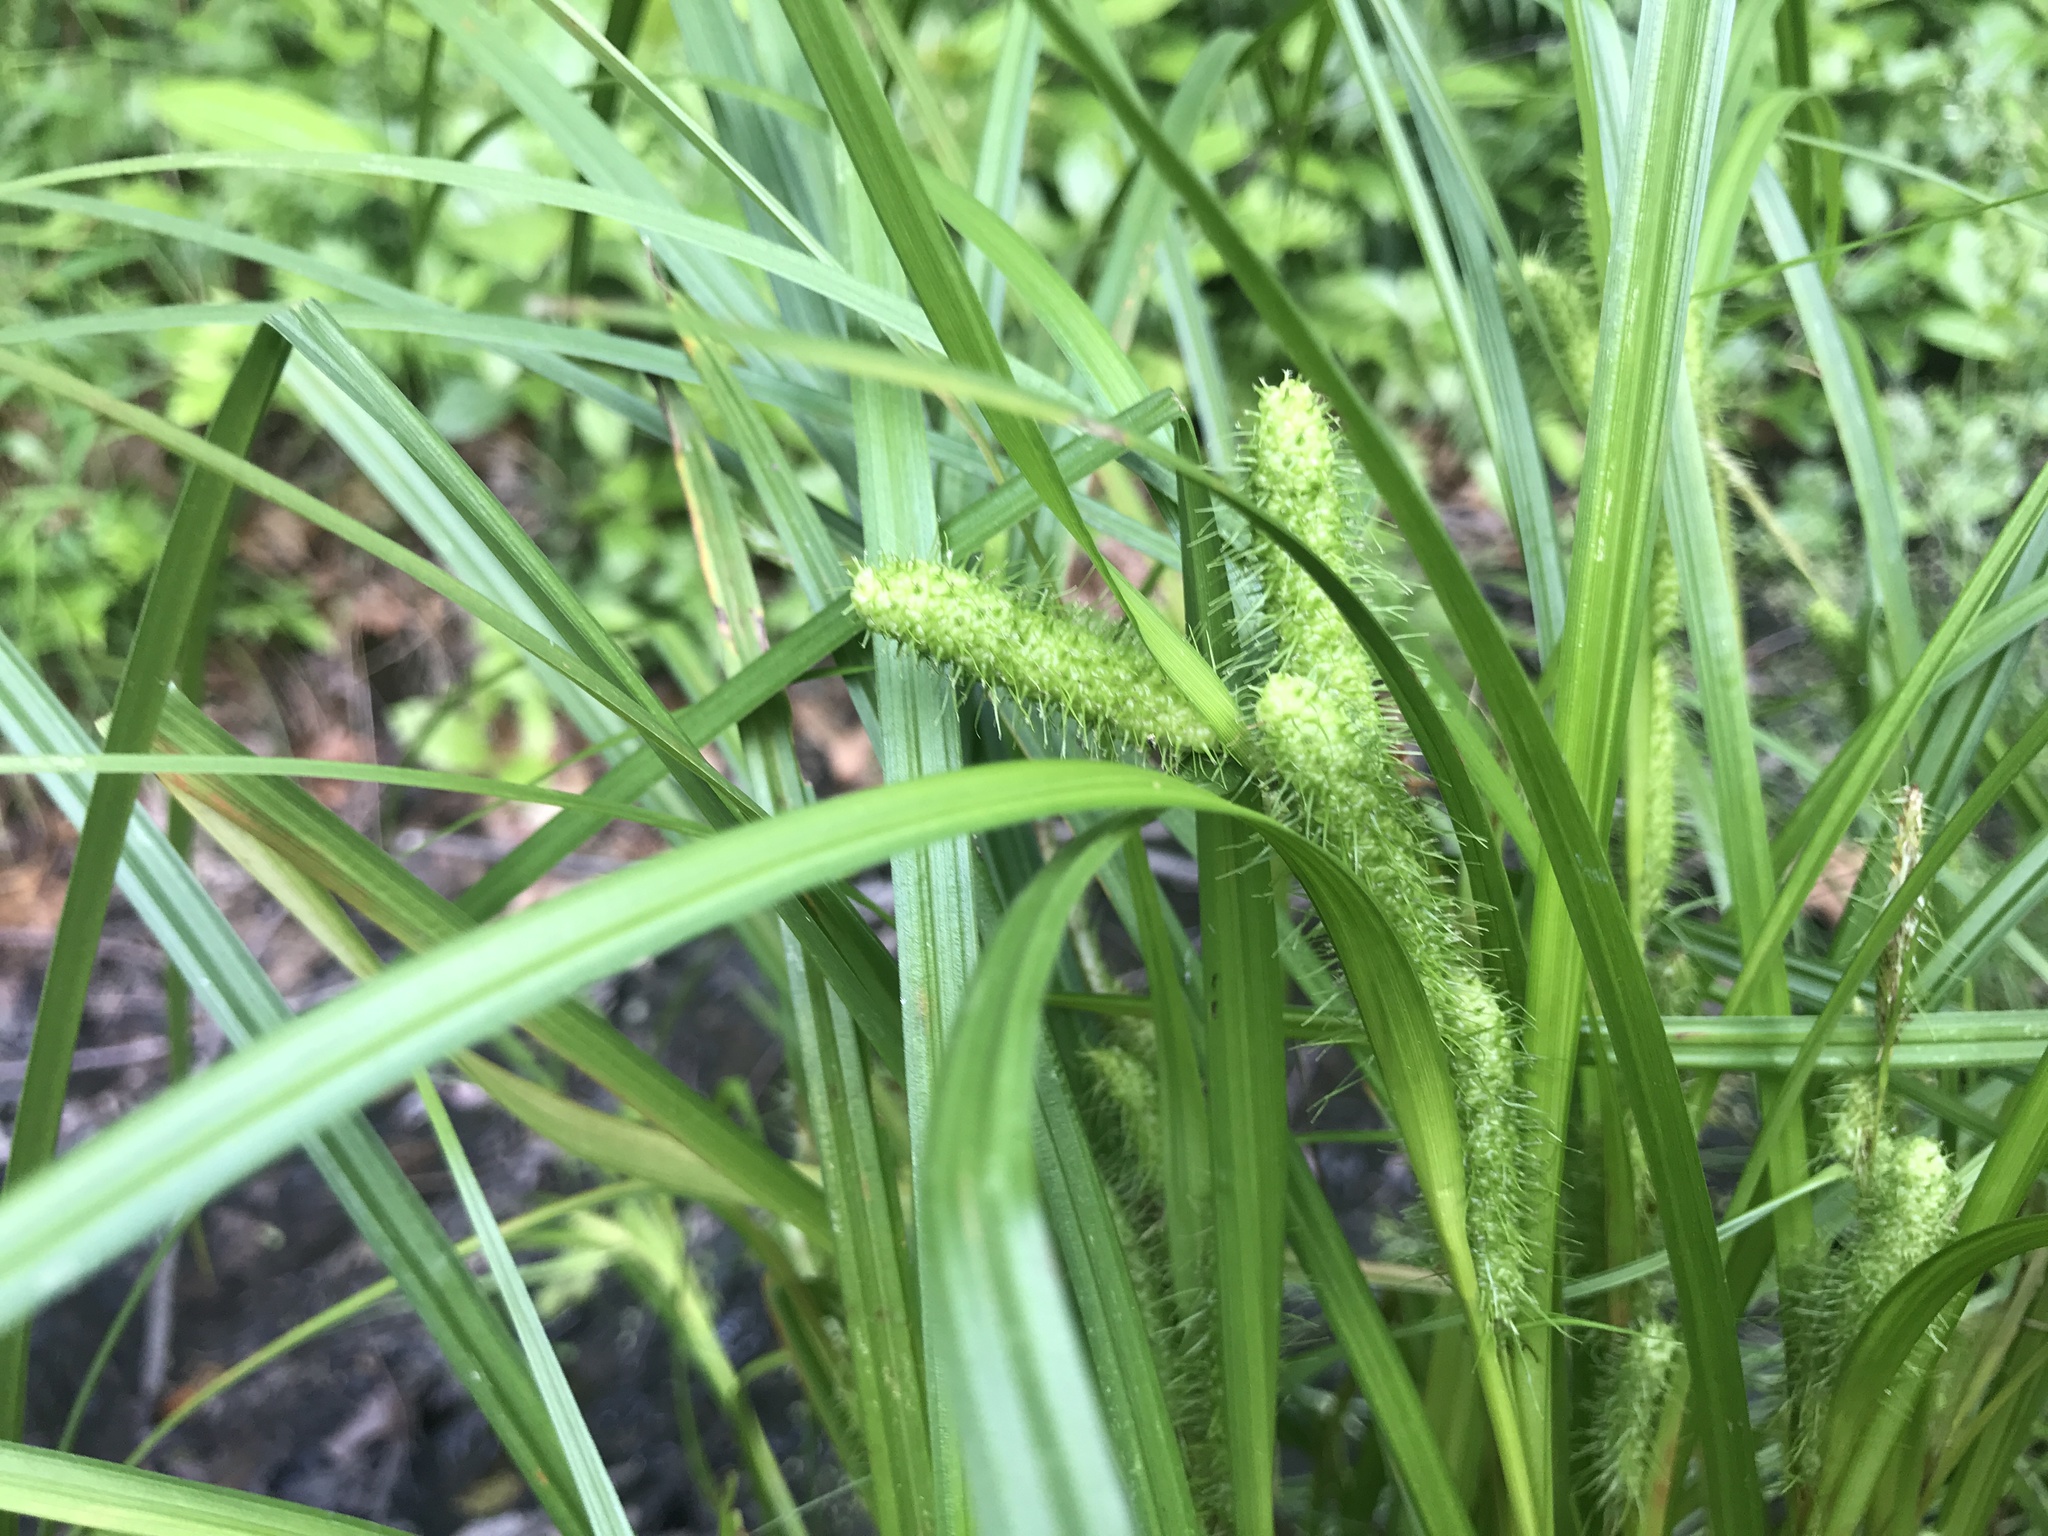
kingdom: Plantae
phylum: Tracheophyta
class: Liliopsida
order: Poales
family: Cyperaceae
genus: Carex
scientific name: Carex frankii
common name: Frank's sedge
